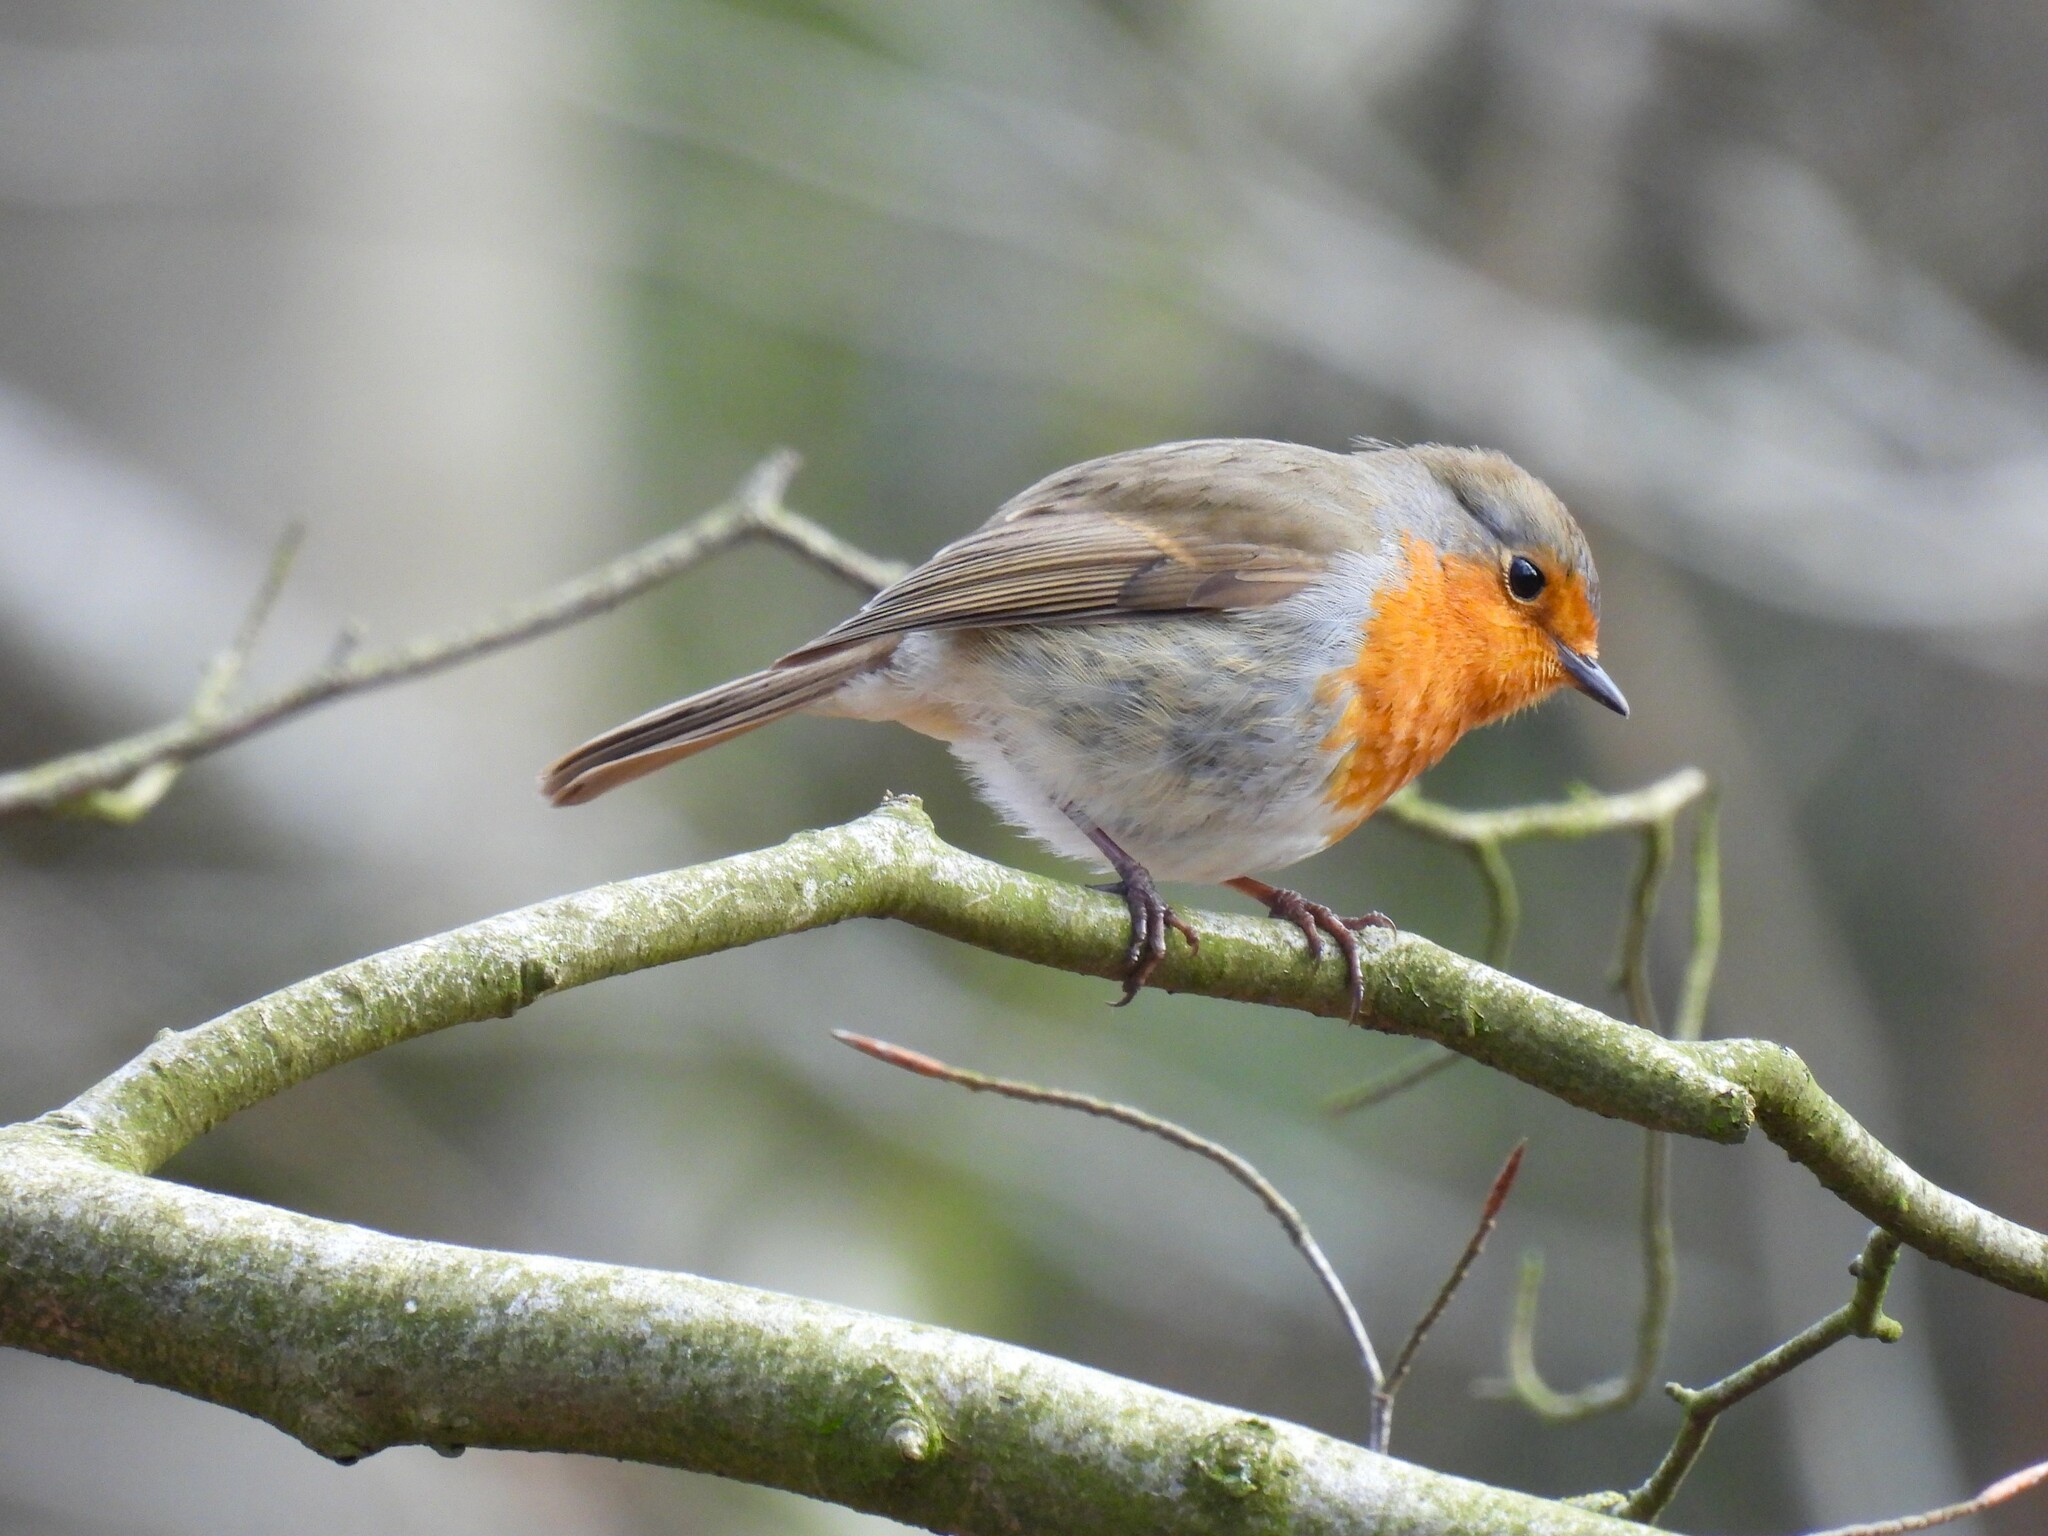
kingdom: Animalia
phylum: Chordata
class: Aves
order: Passeriformes
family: Muscicapidae
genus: Erithacus
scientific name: Erithacus rubecula
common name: European robin
